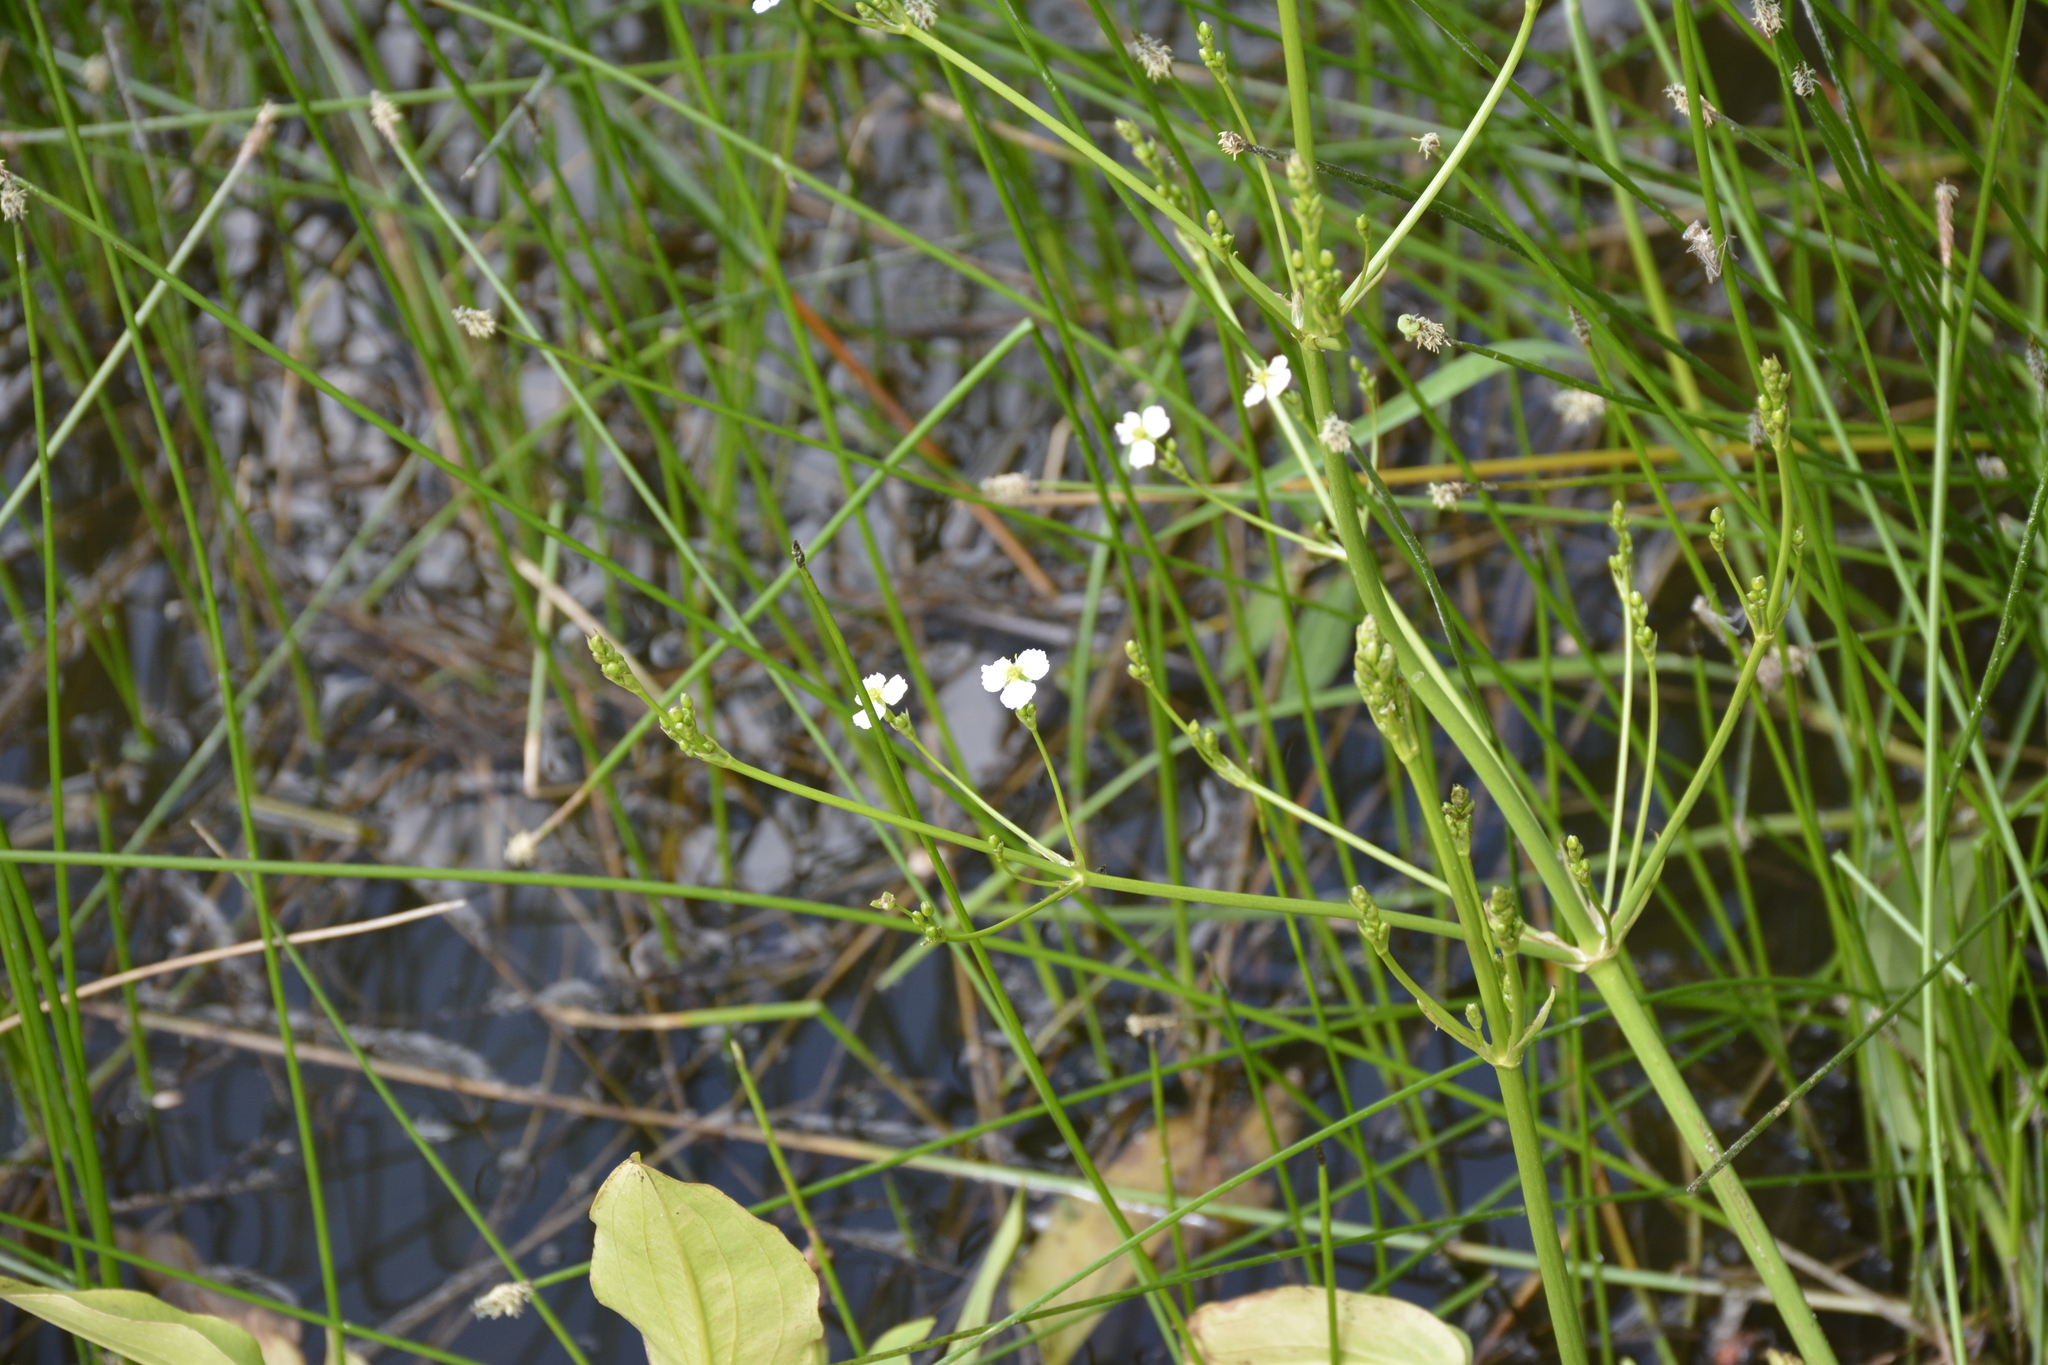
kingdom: Plantae
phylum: Tracheophyta
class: Liliopsida
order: Alismatales
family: Alismataceae
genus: Alisma
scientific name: Alisma plantago-aquatica
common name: Water-plantain
